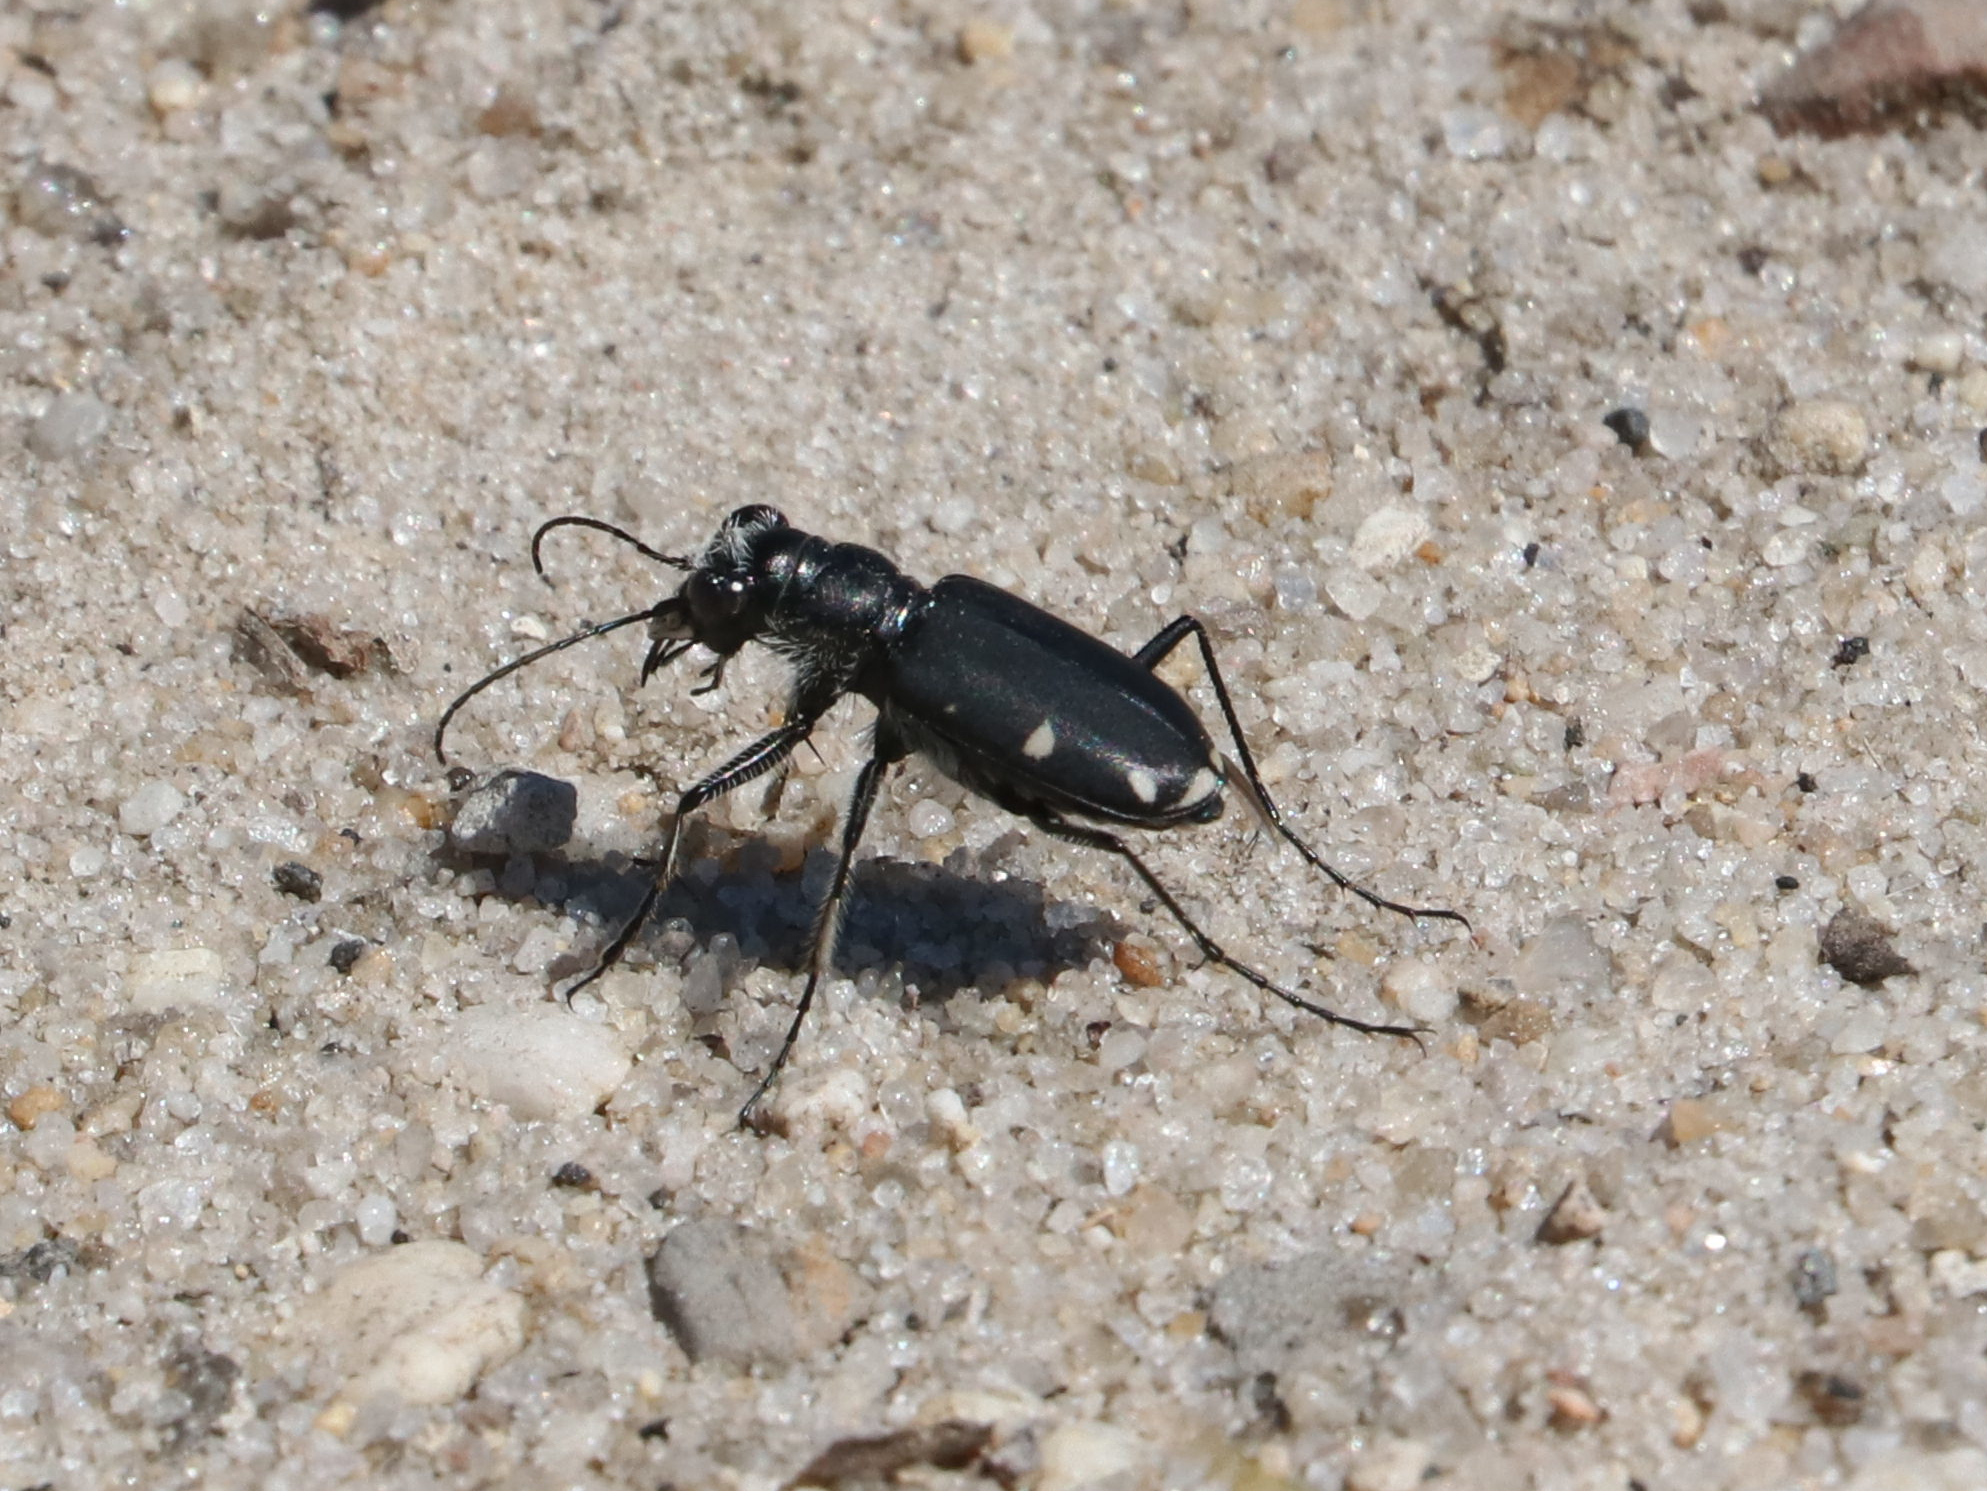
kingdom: Animalia
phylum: Arthropoda
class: Insecta
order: Coleoptera
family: Carabidae
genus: Cicindela
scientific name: Cicindela scutellaris
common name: Festive tiger beetle
